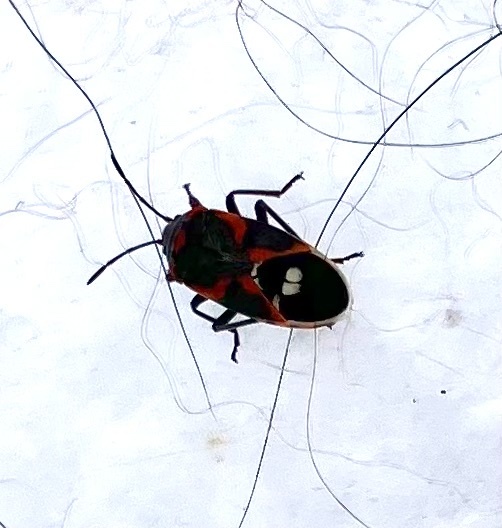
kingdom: Animalia
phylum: Arthropoda
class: Insecta
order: Hemiptera
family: Lygaeidae
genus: Lygaeus
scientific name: Lygaeus kalmii
